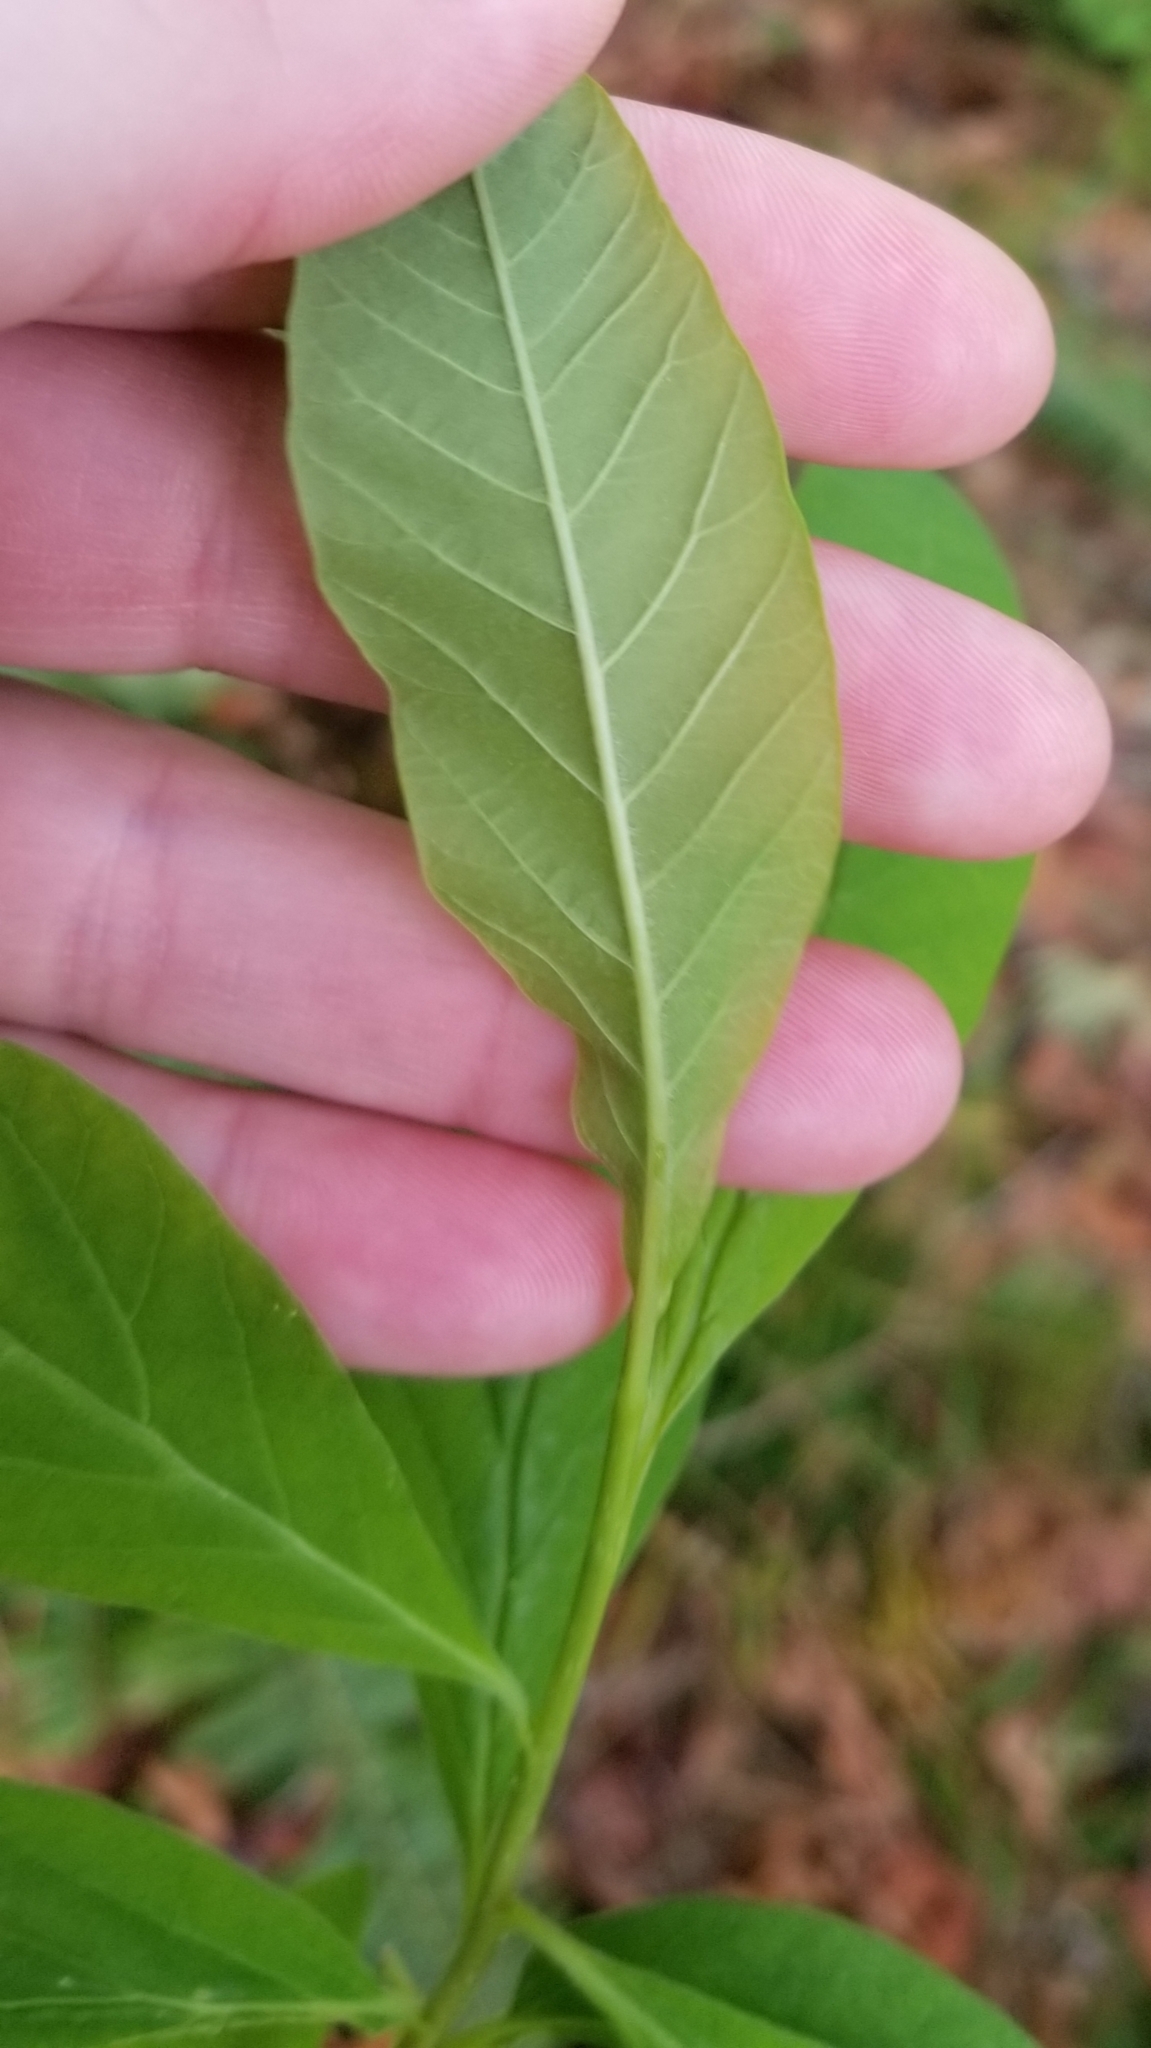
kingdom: Plantae
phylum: Tracheophyta
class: Magnoliopsida
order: Rosales
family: Rosaceae
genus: Oemleria
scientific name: Oemleria cerasiformis
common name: Osoberry
